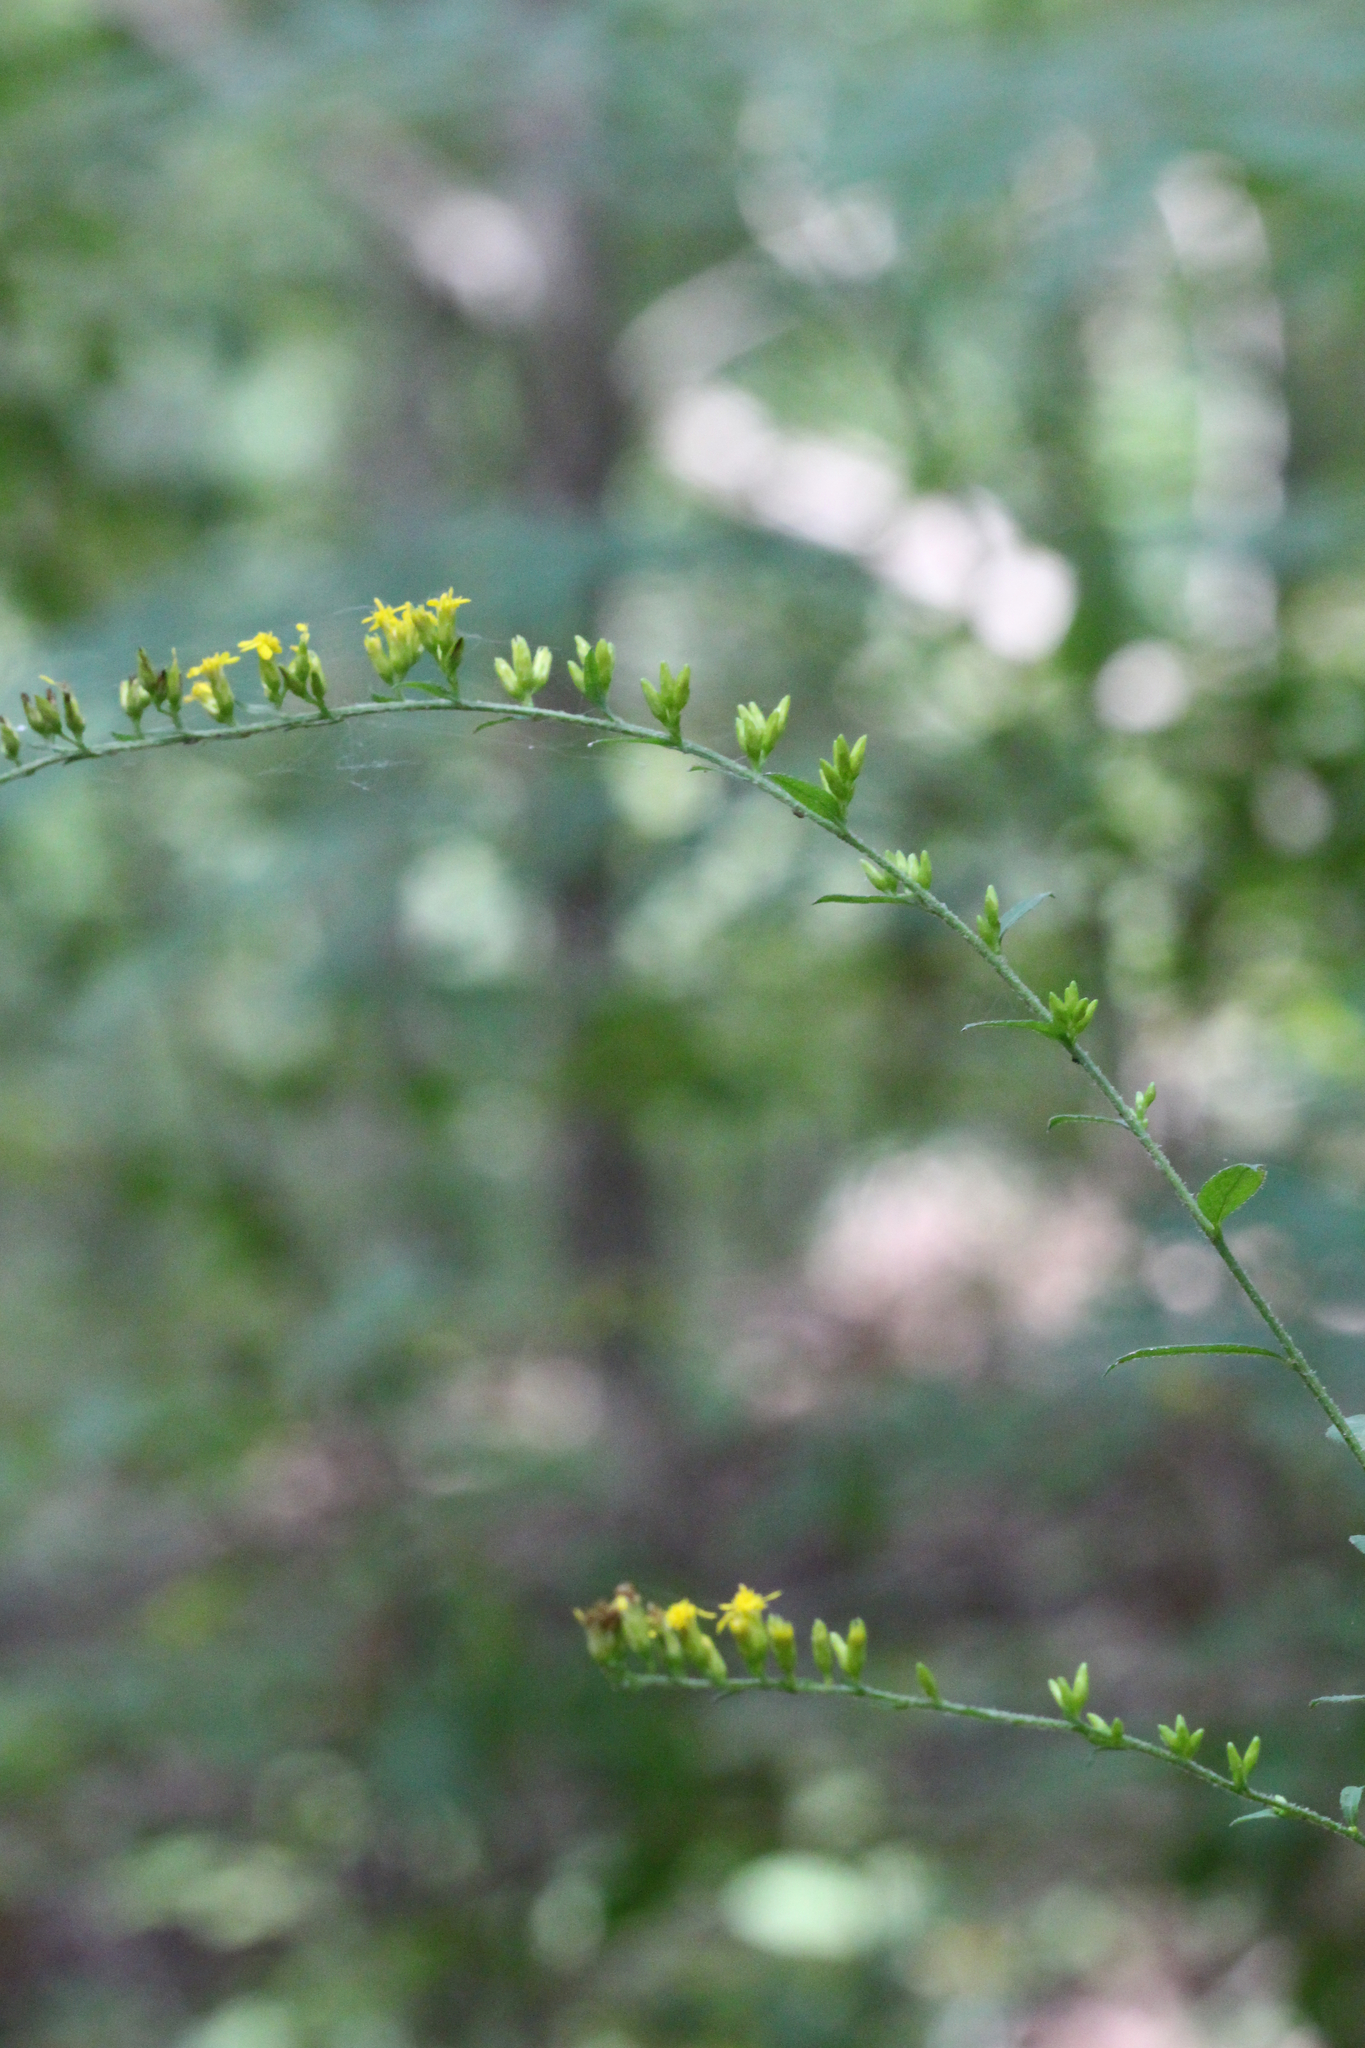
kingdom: Plantae
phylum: Tracheophyta
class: Magnoliopsida
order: Asterales
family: Asteraceae
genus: Solidago
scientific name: Solidago ulmifolia
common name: Elm-leaf goldenrod
